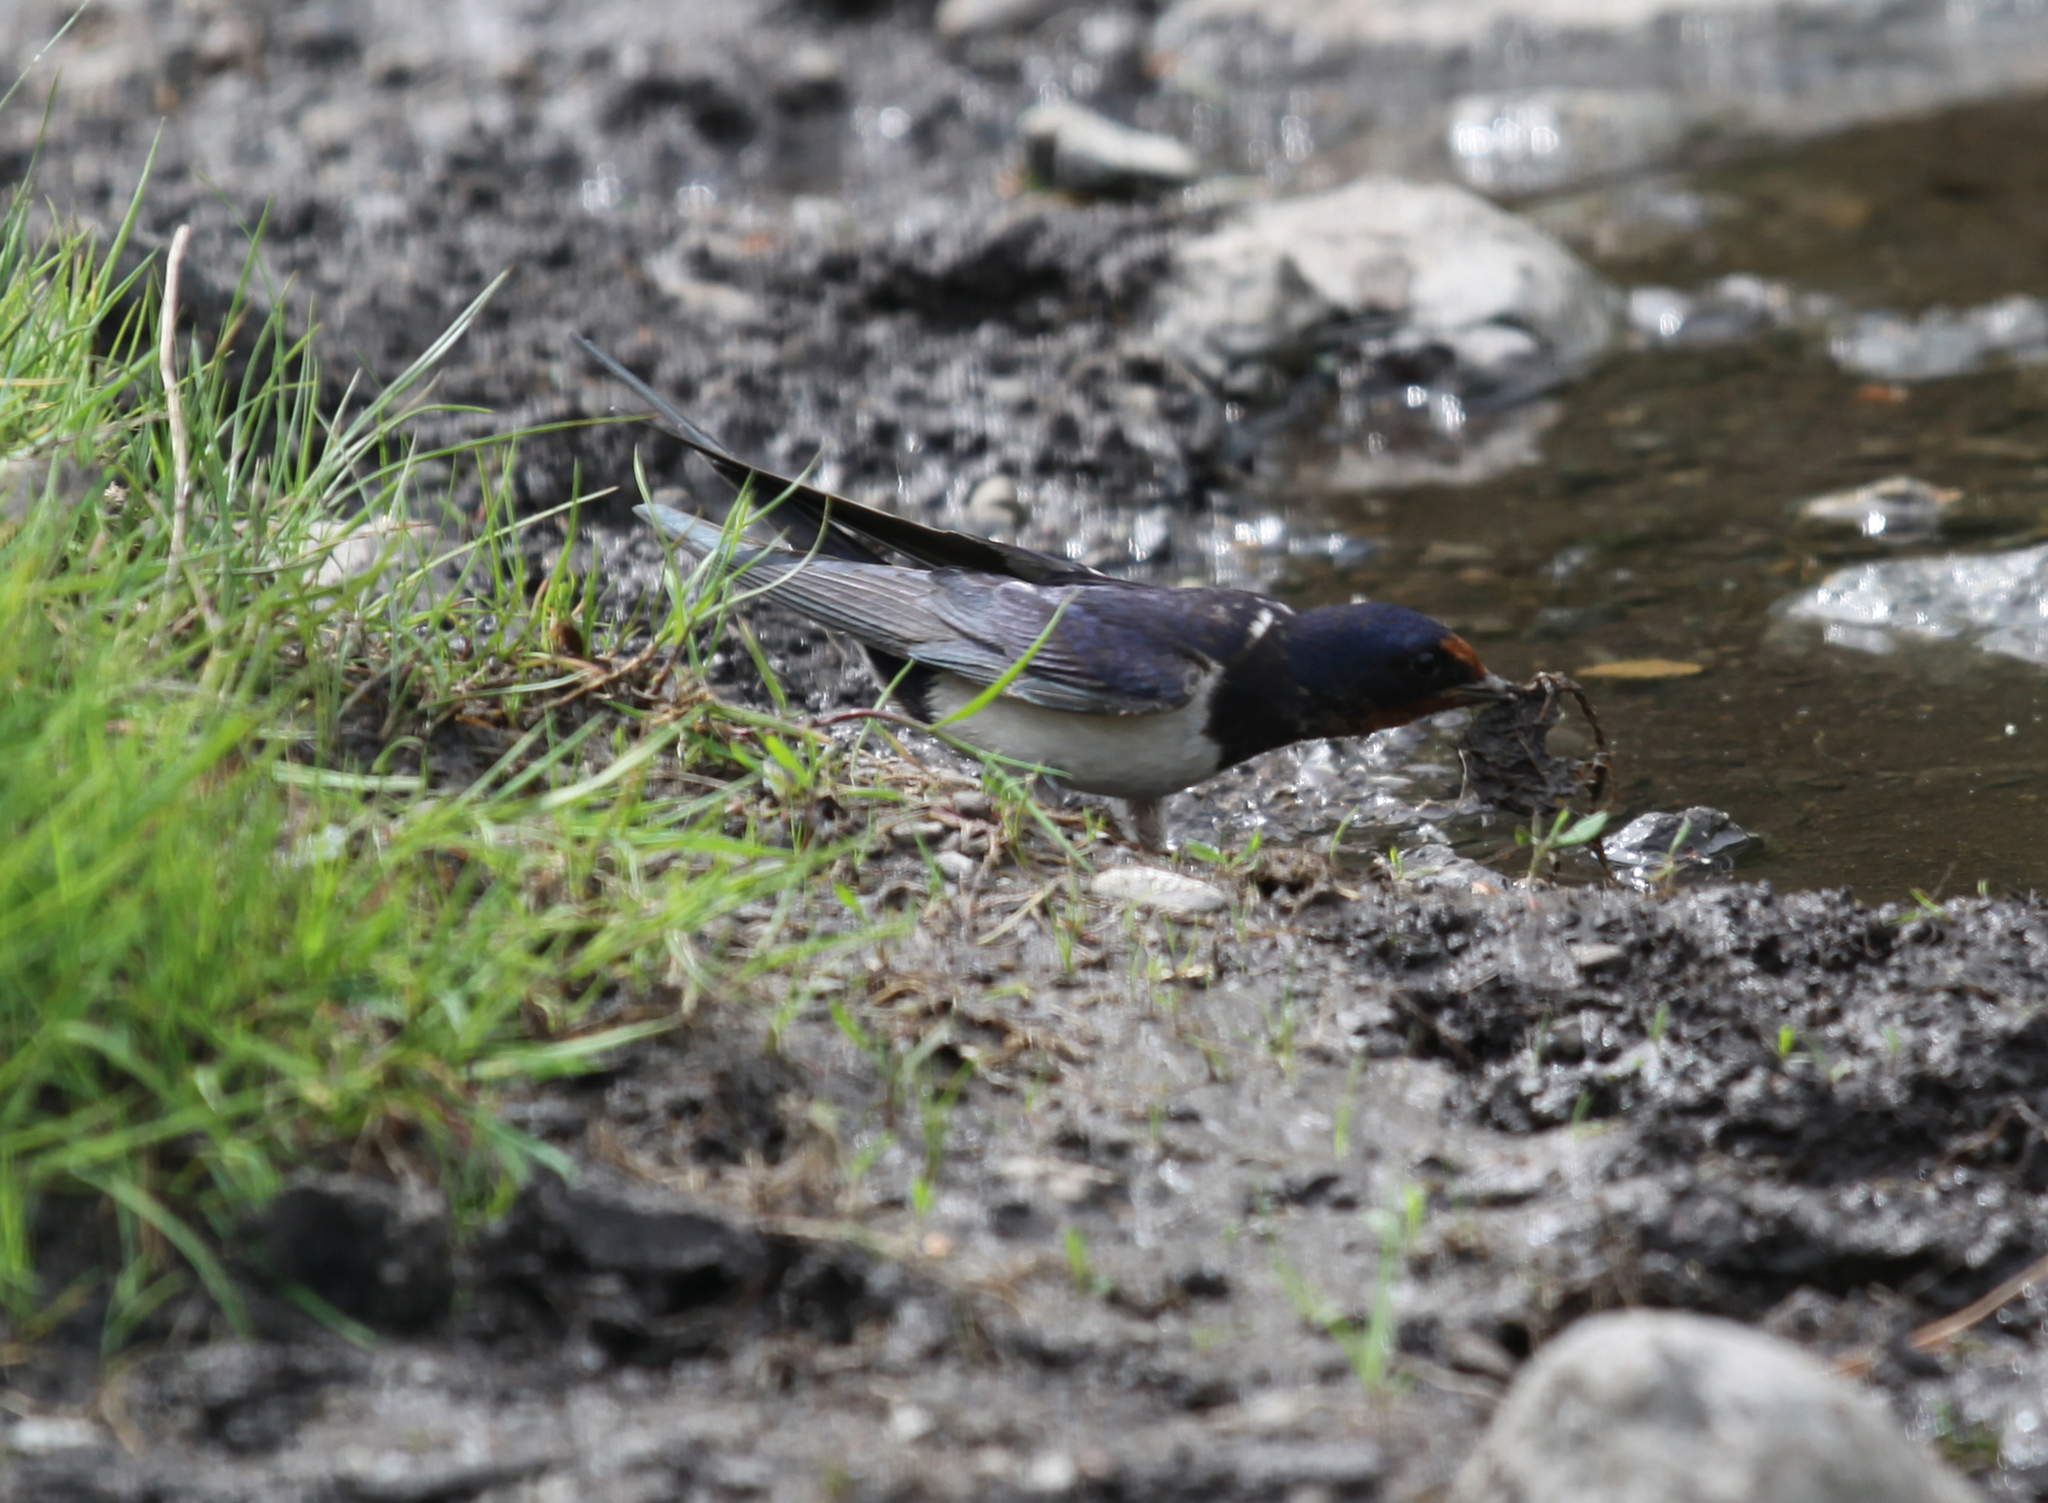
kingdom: Animalia
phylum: Chordata
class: Aves
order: Passeriformes
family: Hirundinidae
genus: Hirundo
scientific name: Hirundo rustica
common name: Barn swallow
